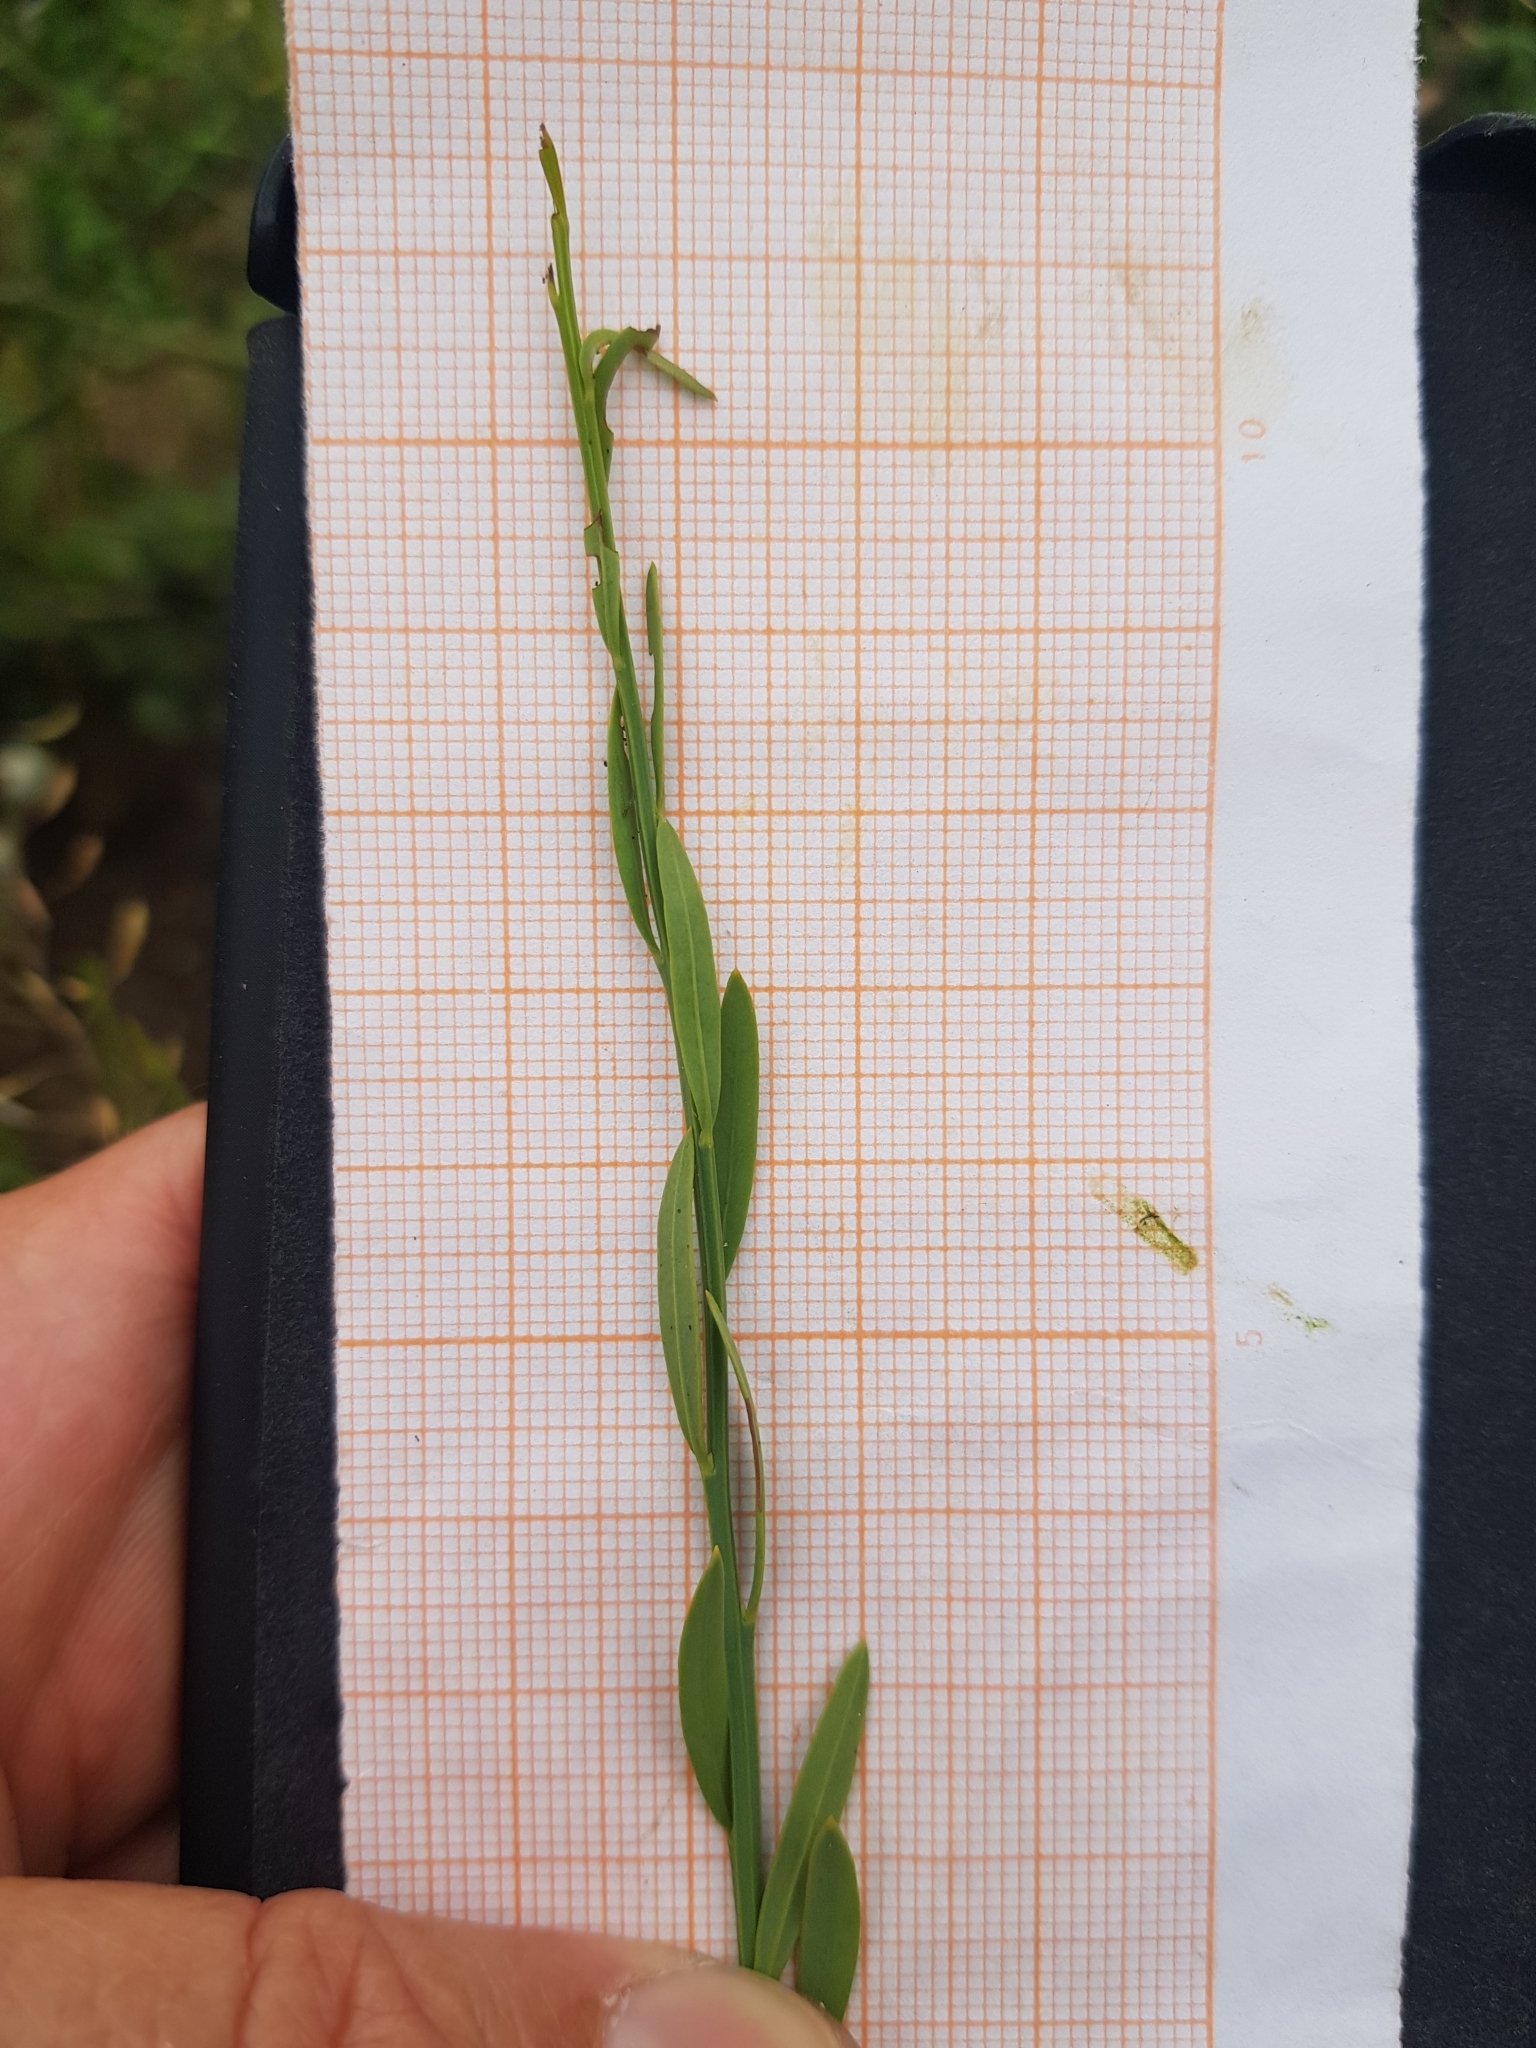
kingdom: Plantae
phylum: Tracheophyta
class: Magnoliopsida
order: Santalales
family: Santalaceae
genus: Osyris
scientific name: Osyris alba
